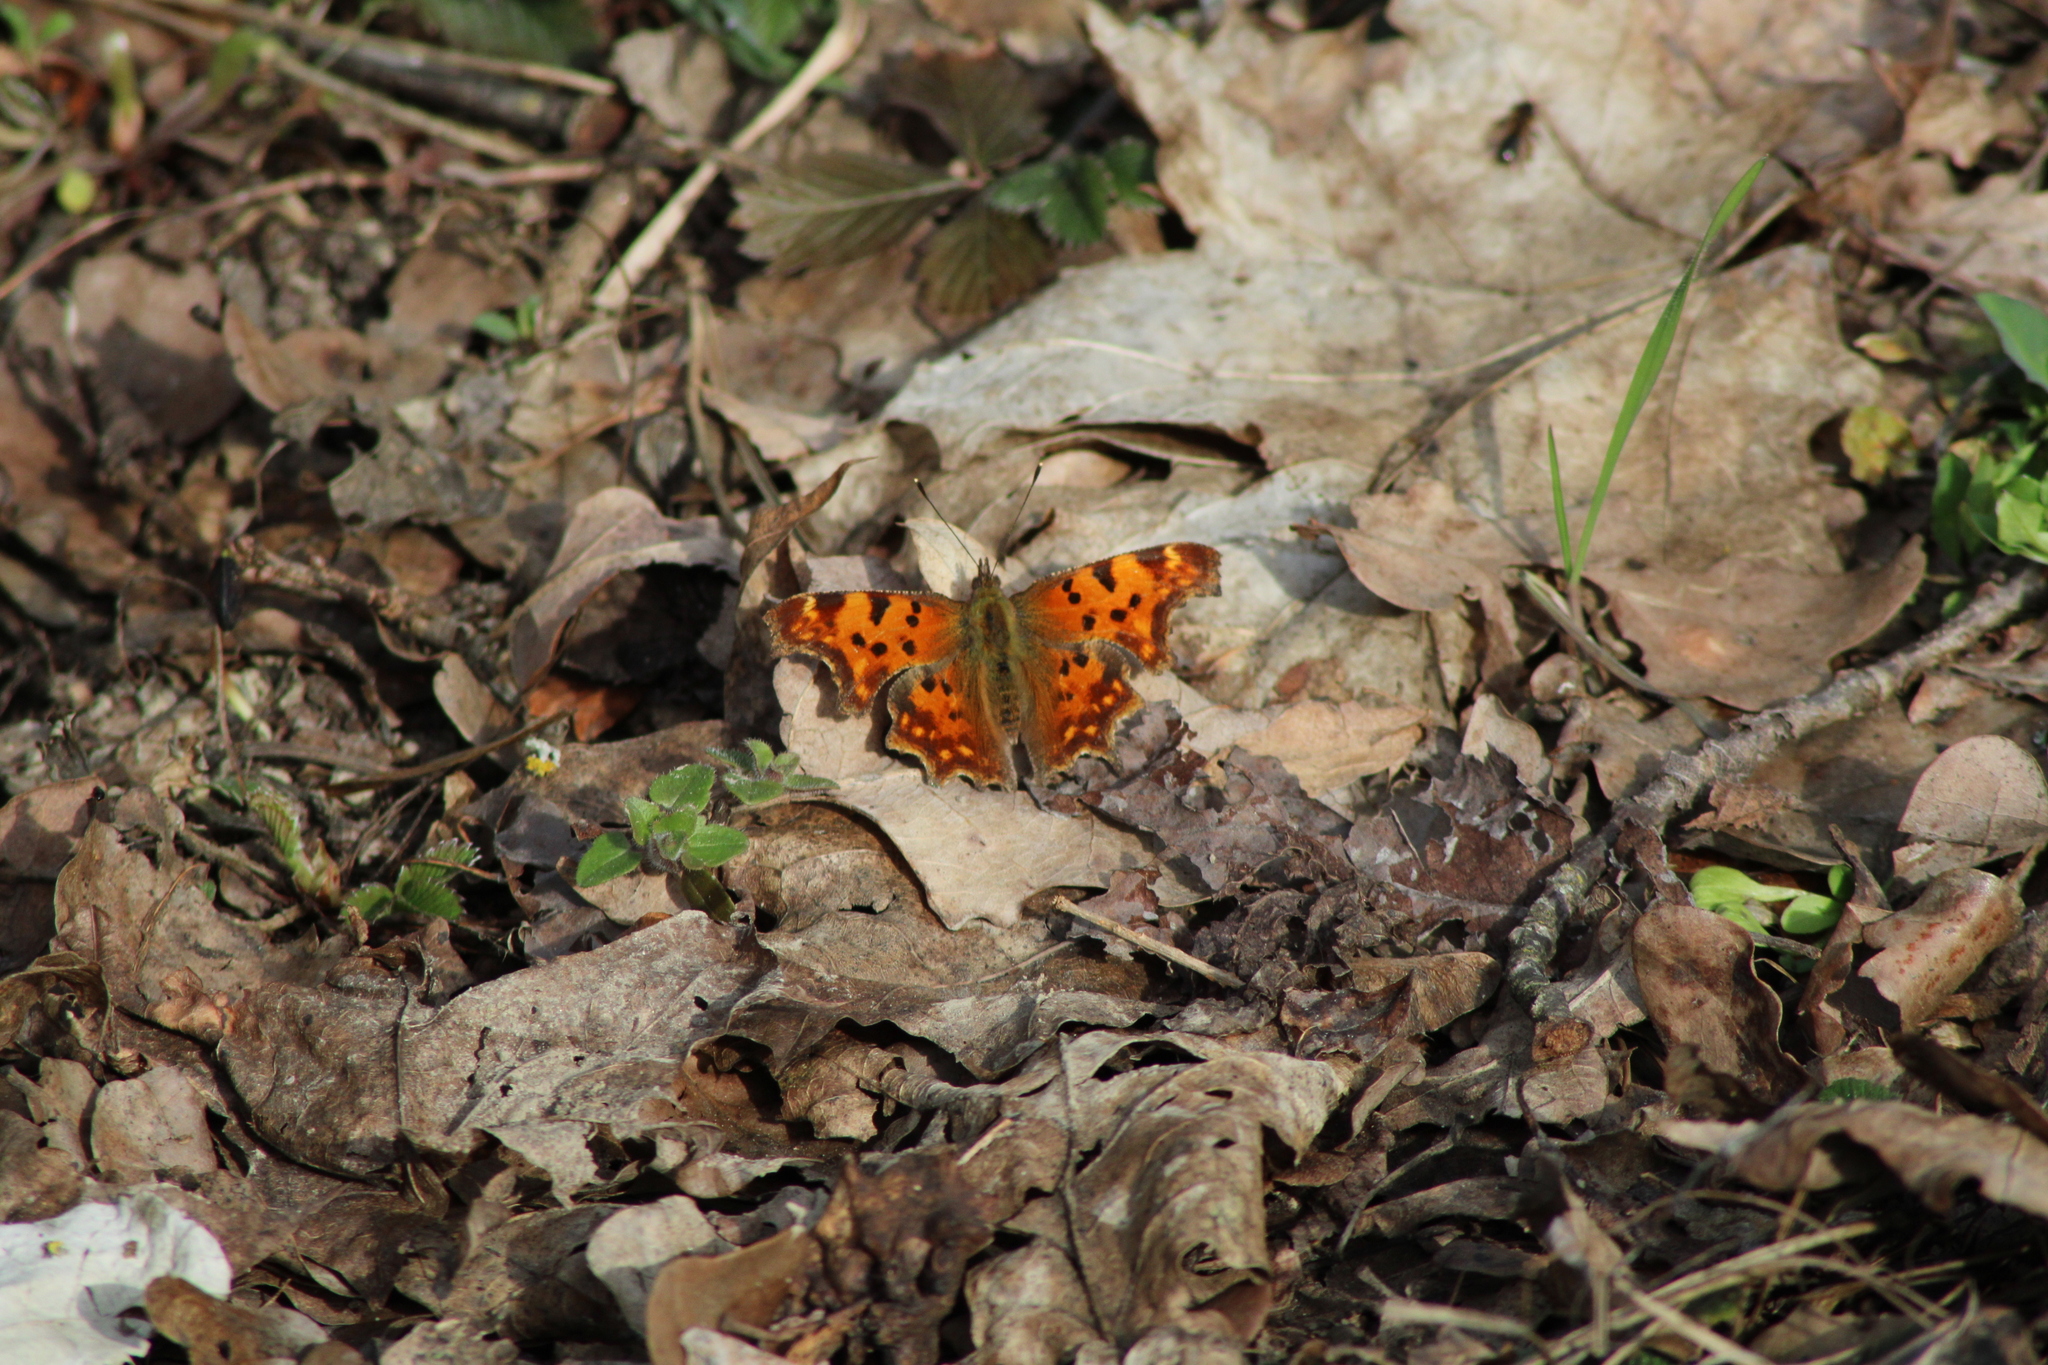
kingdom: Animalia
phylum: Arthropoda
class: Insecta
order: Lepidoptera
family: Nymphalidae
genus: Polygonia
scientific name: Polygonia c-album
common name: Comma
